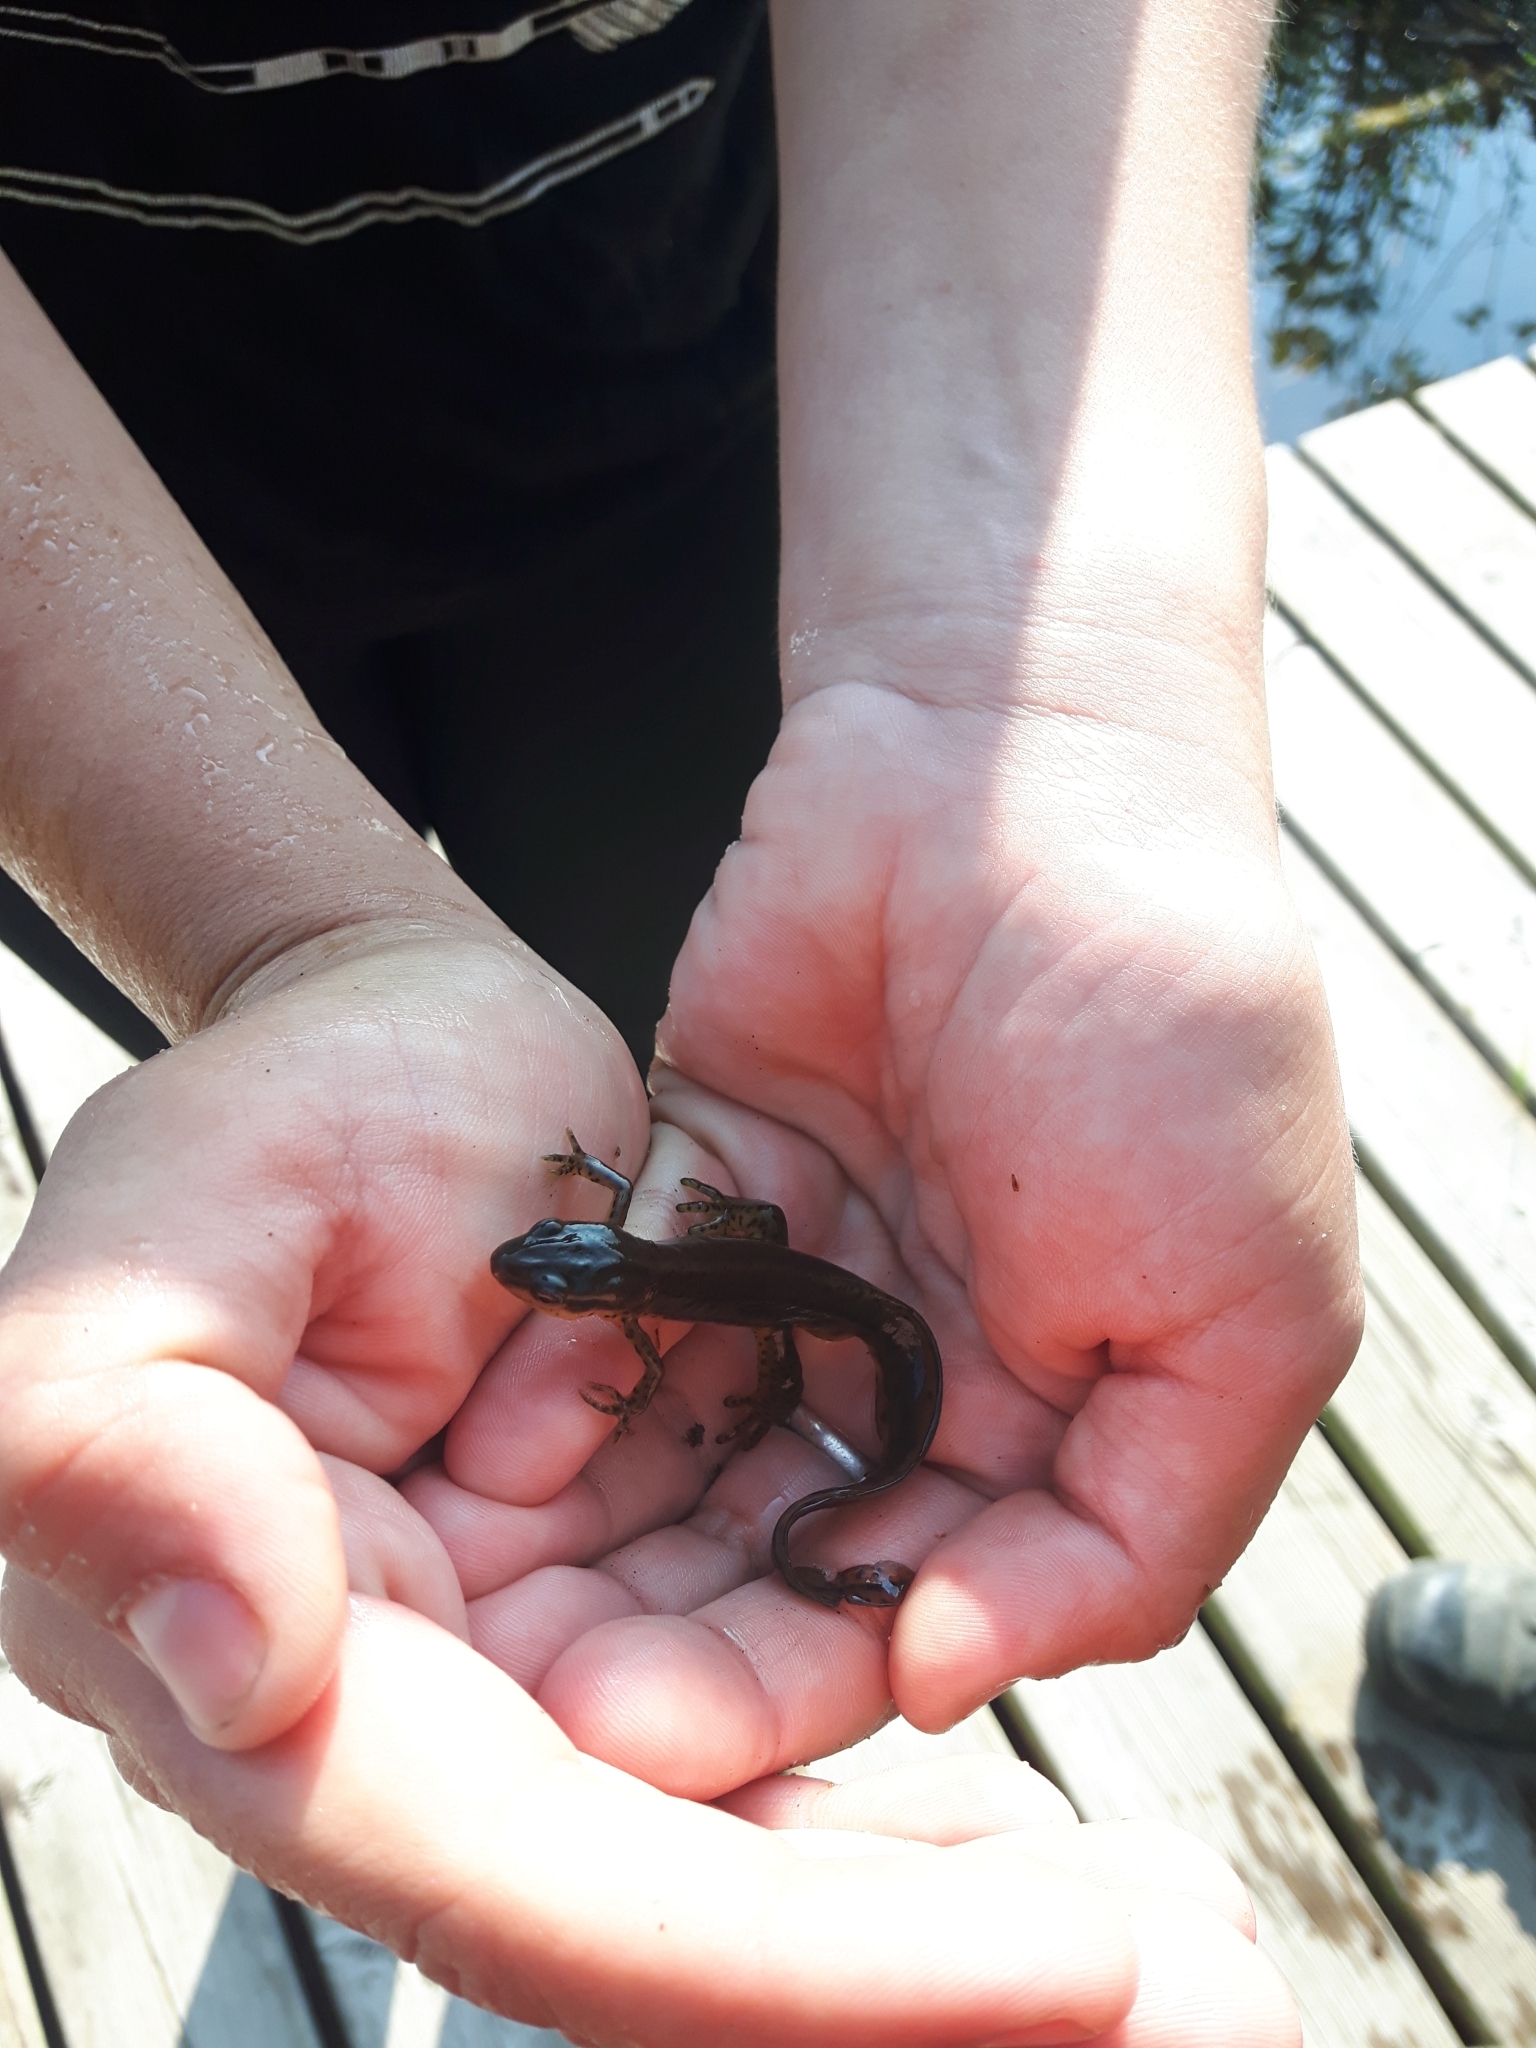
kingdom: Animalia
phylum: Chordata
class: Amphibia
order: Caudata
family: Salamandridae
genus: Notophthalmus
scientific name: Notophthalmus viridescens
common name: Eastern newt
